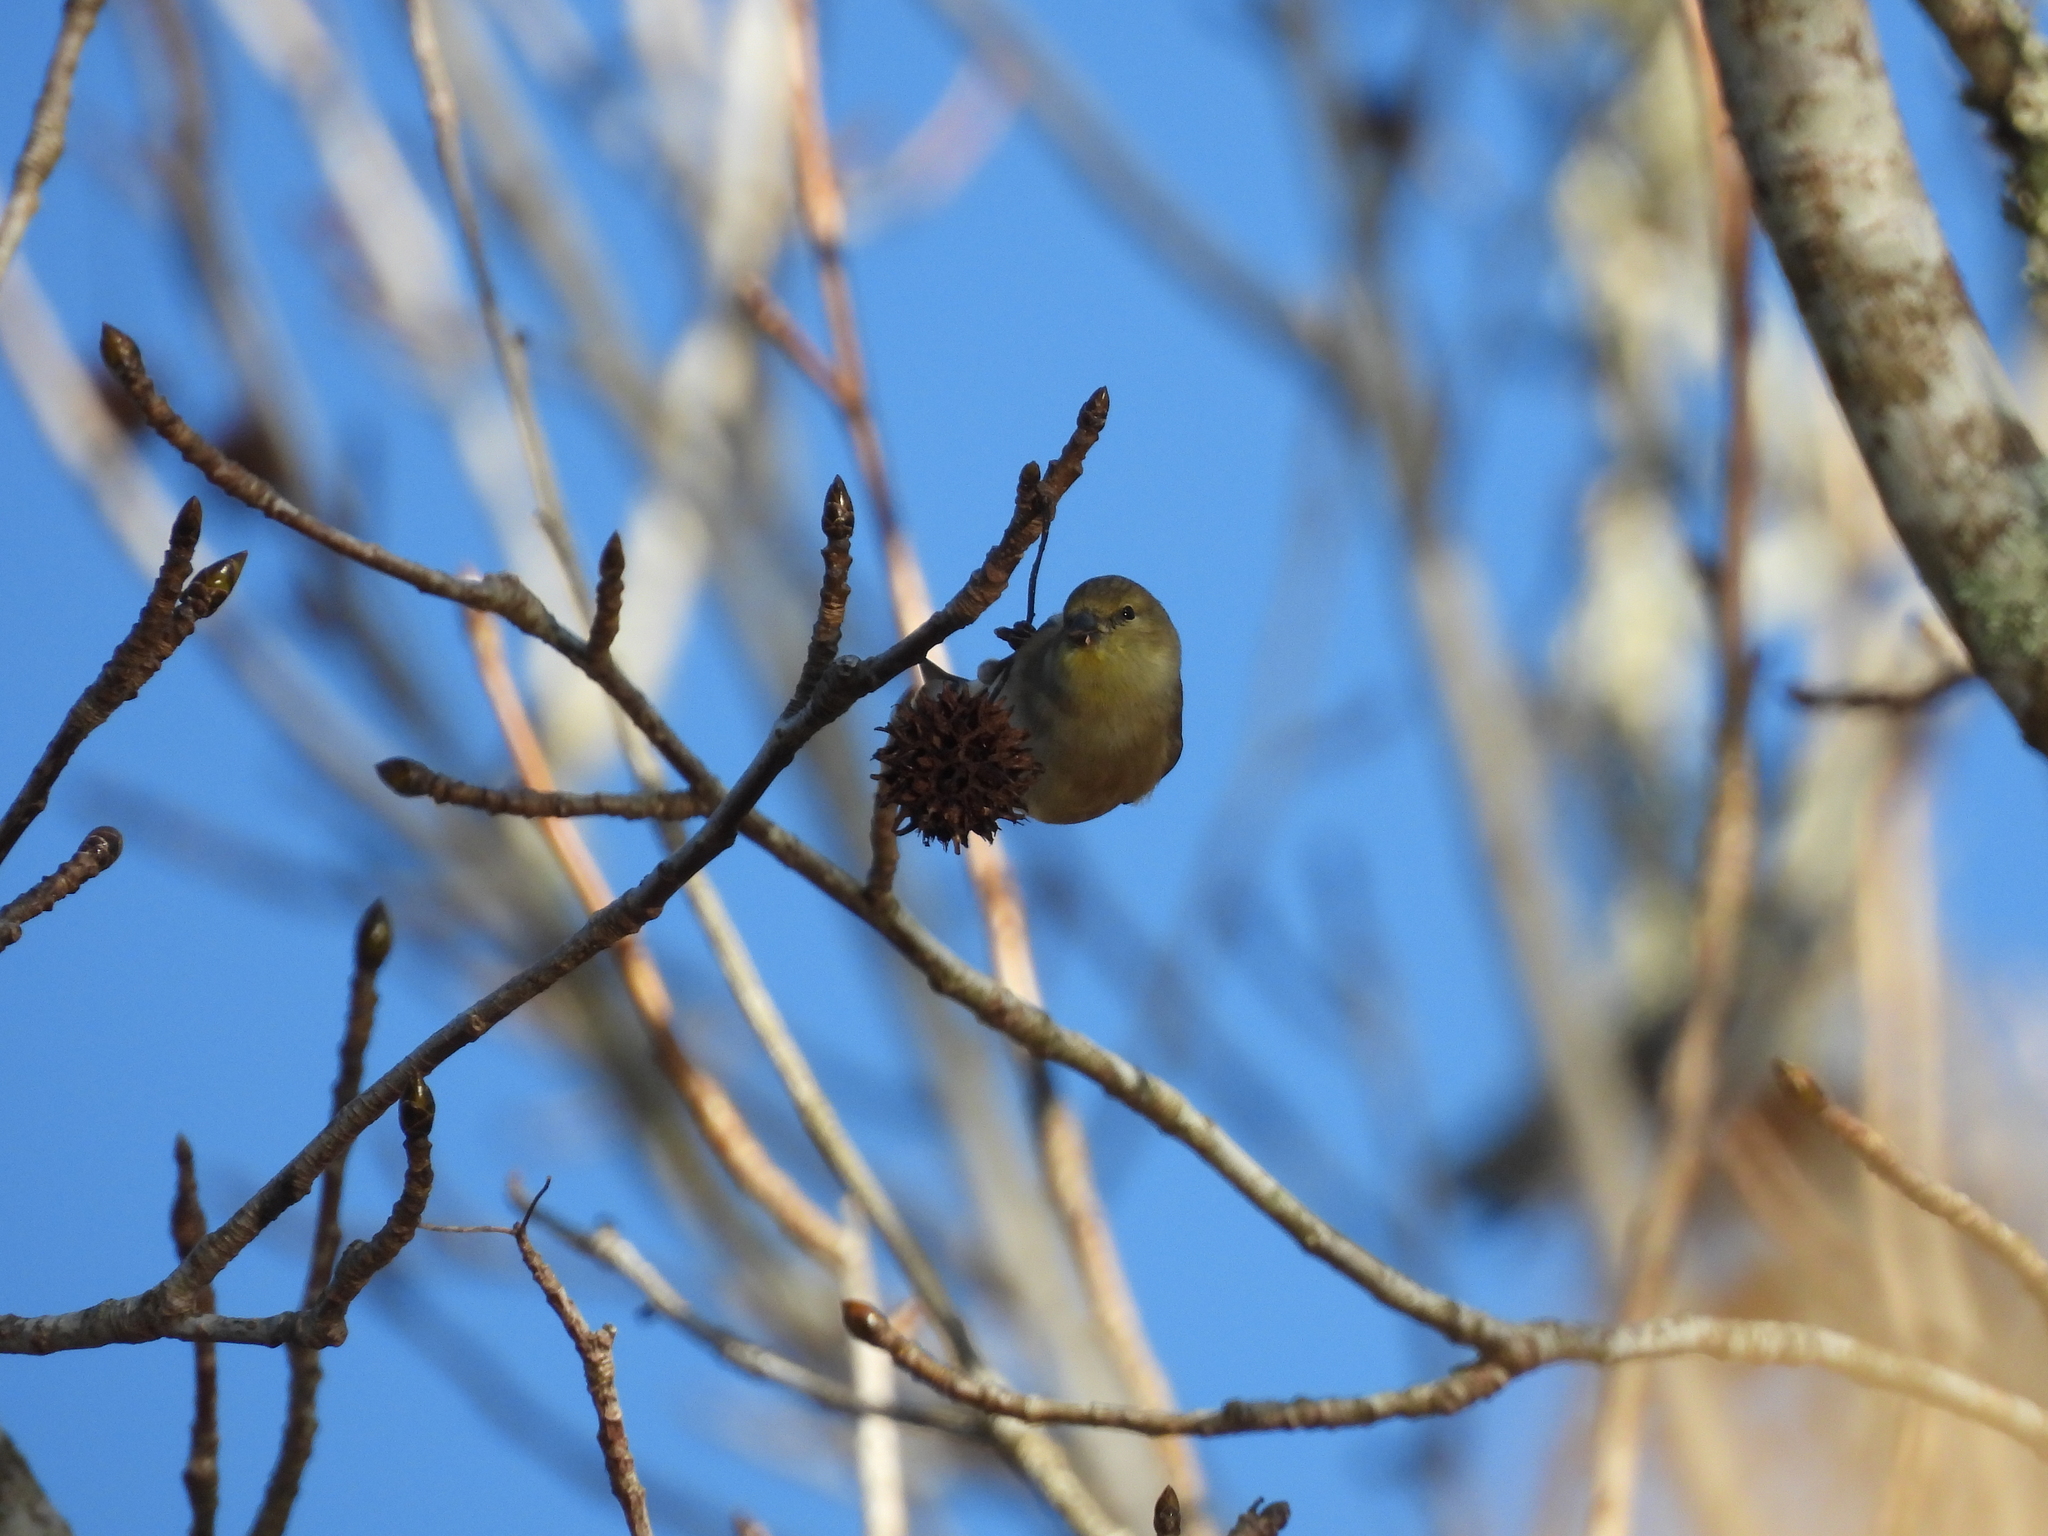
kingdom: Animalia
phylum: Chordata
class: Aves
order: Passeriformes
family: Fringillidae
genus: Spinus
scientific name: Spinus tristis
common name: American goldfinch
